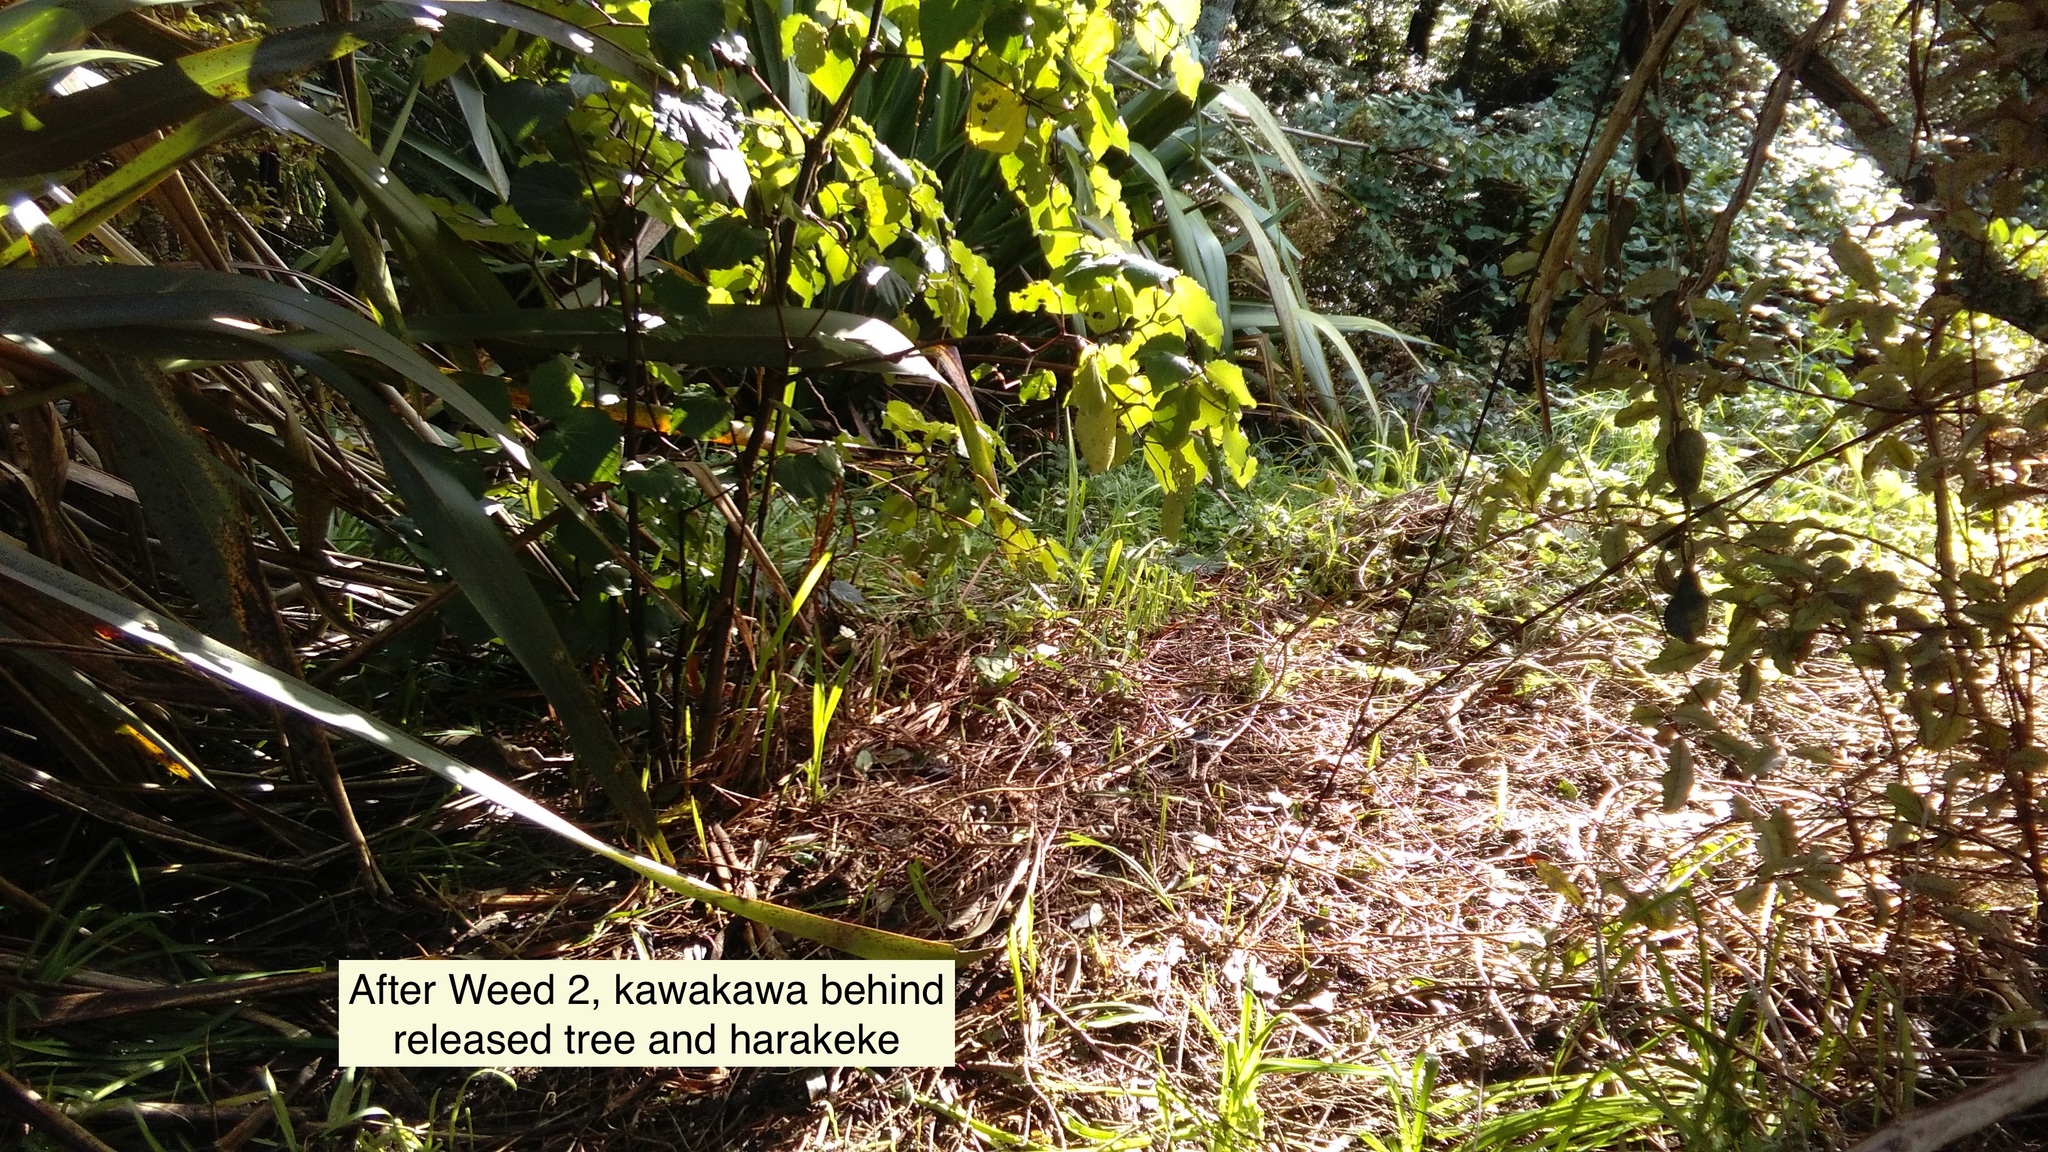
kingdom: Plantae
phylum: Tracheophyta
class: Magnoliopsida
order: Piperales
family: Piperaceae
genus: Macropiper
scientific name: Macropiper excelsum
